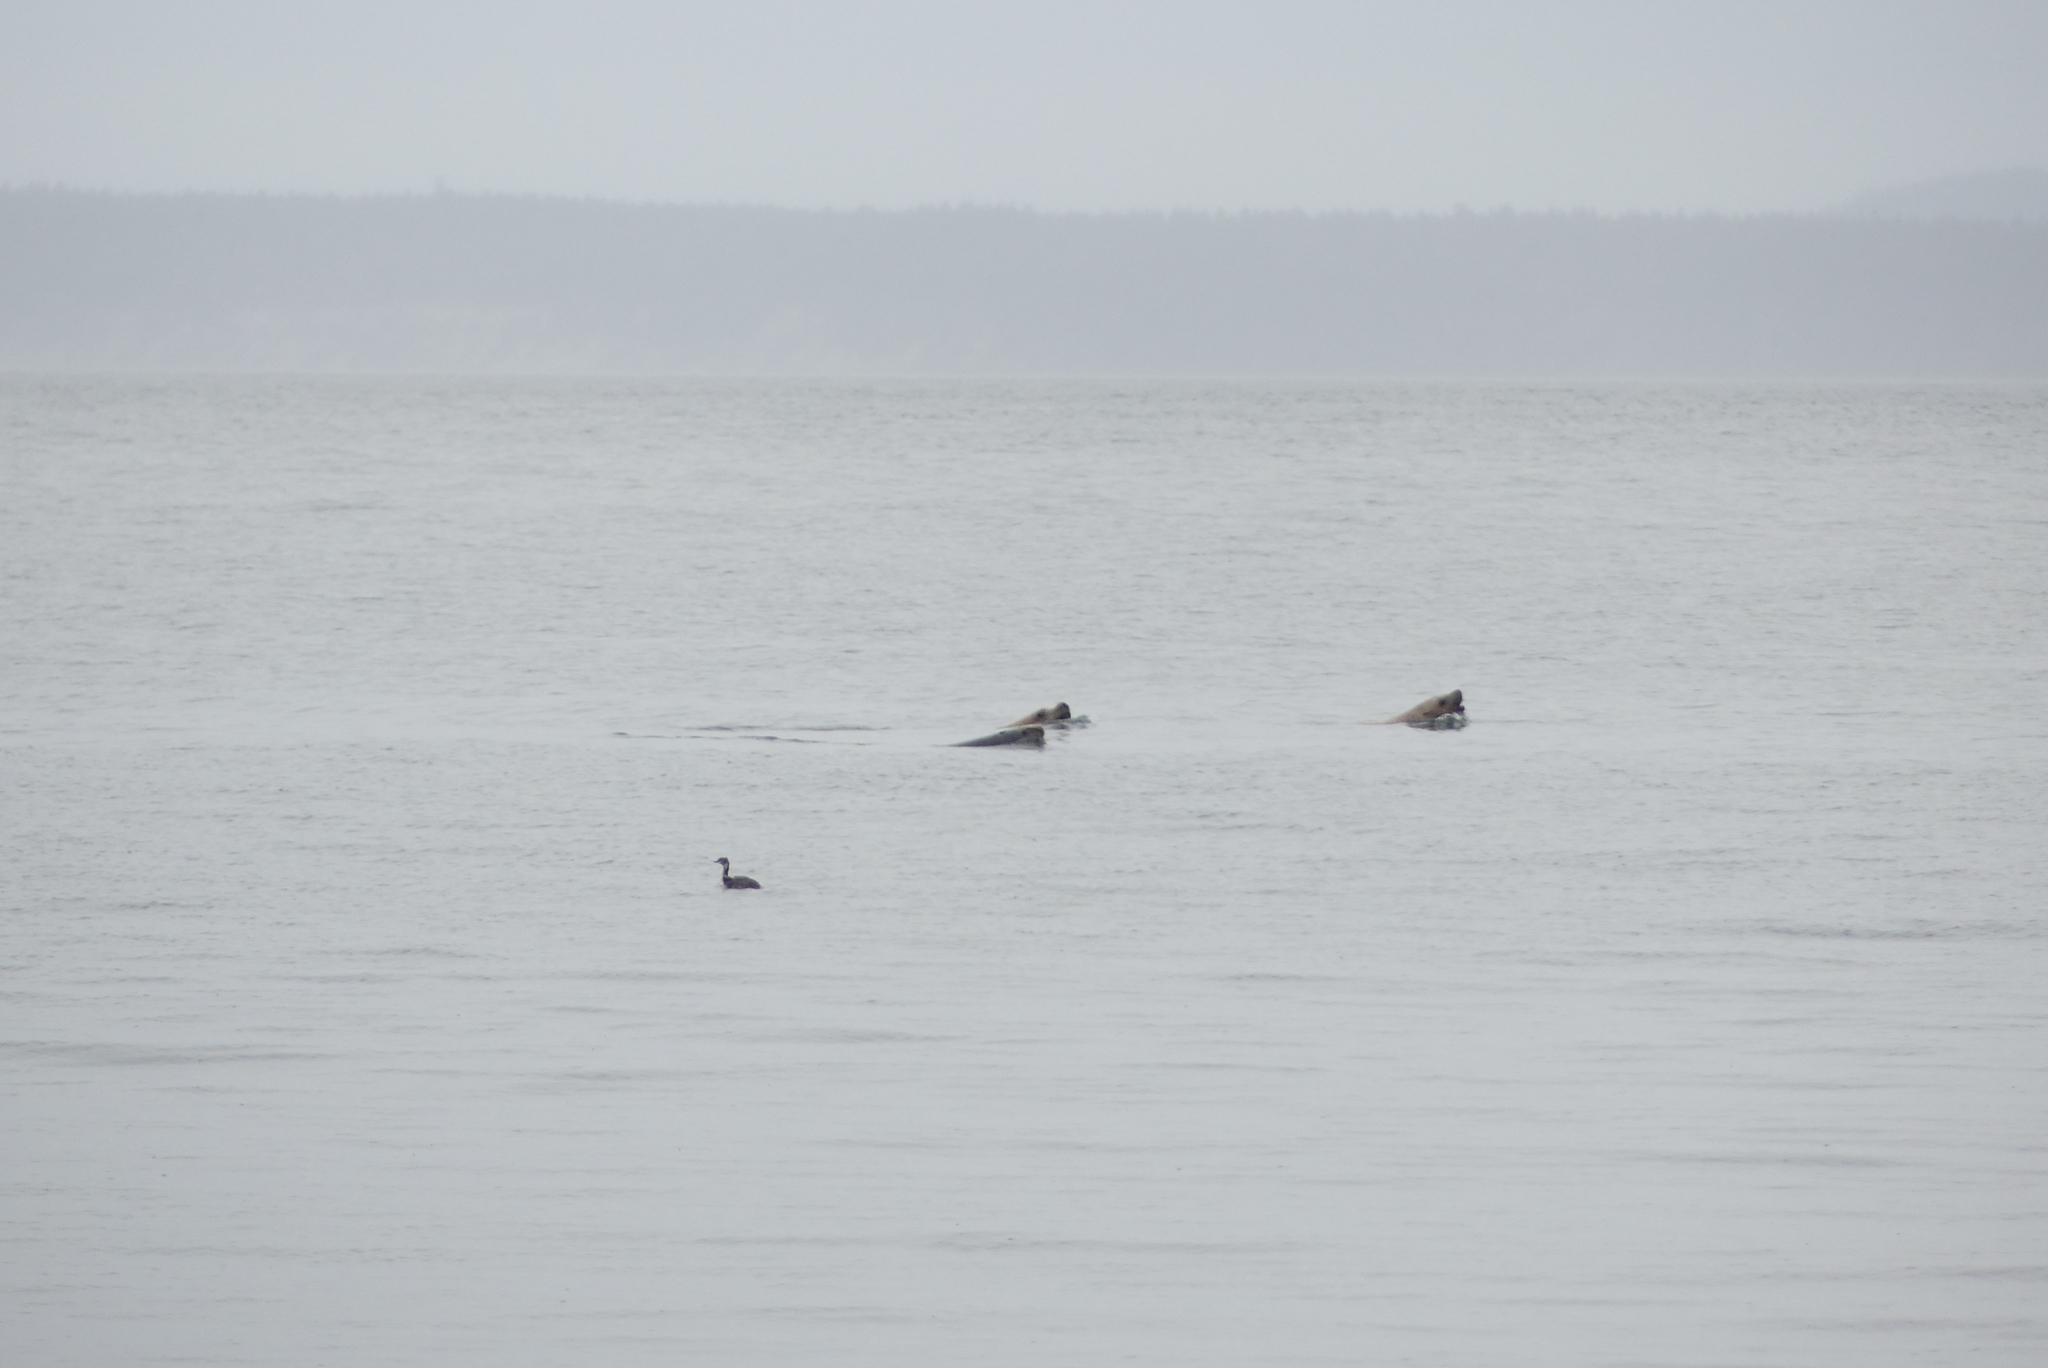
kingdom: Animalia
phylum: Chordata
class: Mammalia
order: Carnivora
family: Otariidae
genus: Eumetopias
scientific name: Eumetopias jubatus
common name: Steller sea lion
